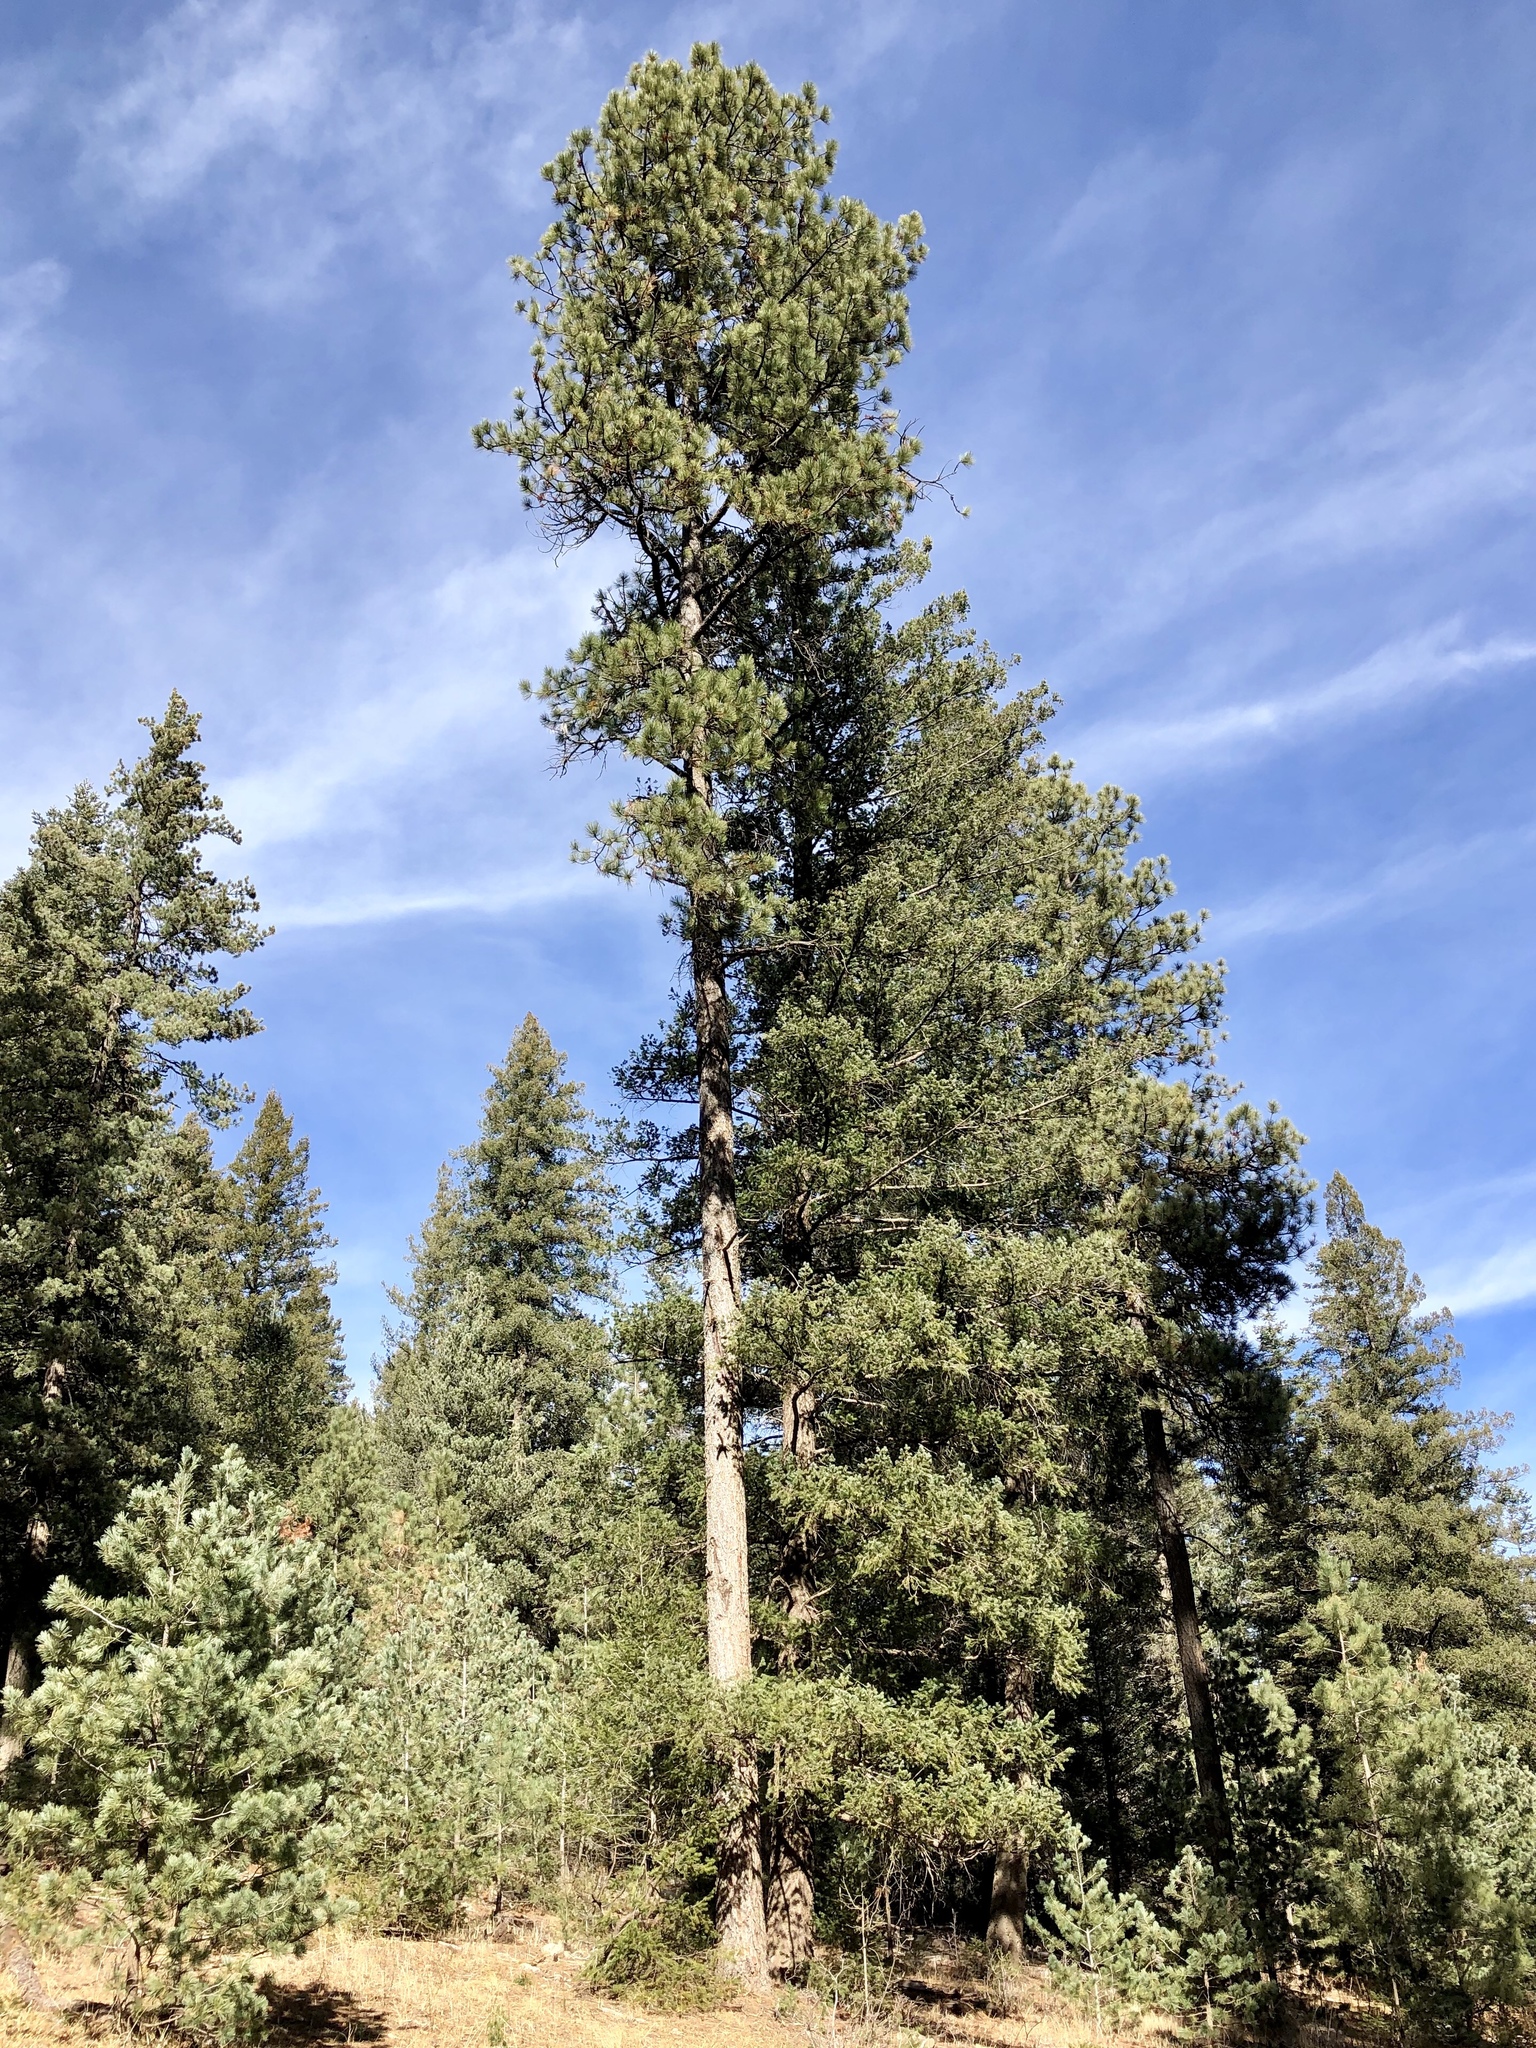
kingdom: Plantae
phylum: Tracheophyta
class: Pinopsida
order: Pinales
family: Pinaceae
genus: Pinus
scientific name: Pinus ponderosa
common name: Western yellow-pine
